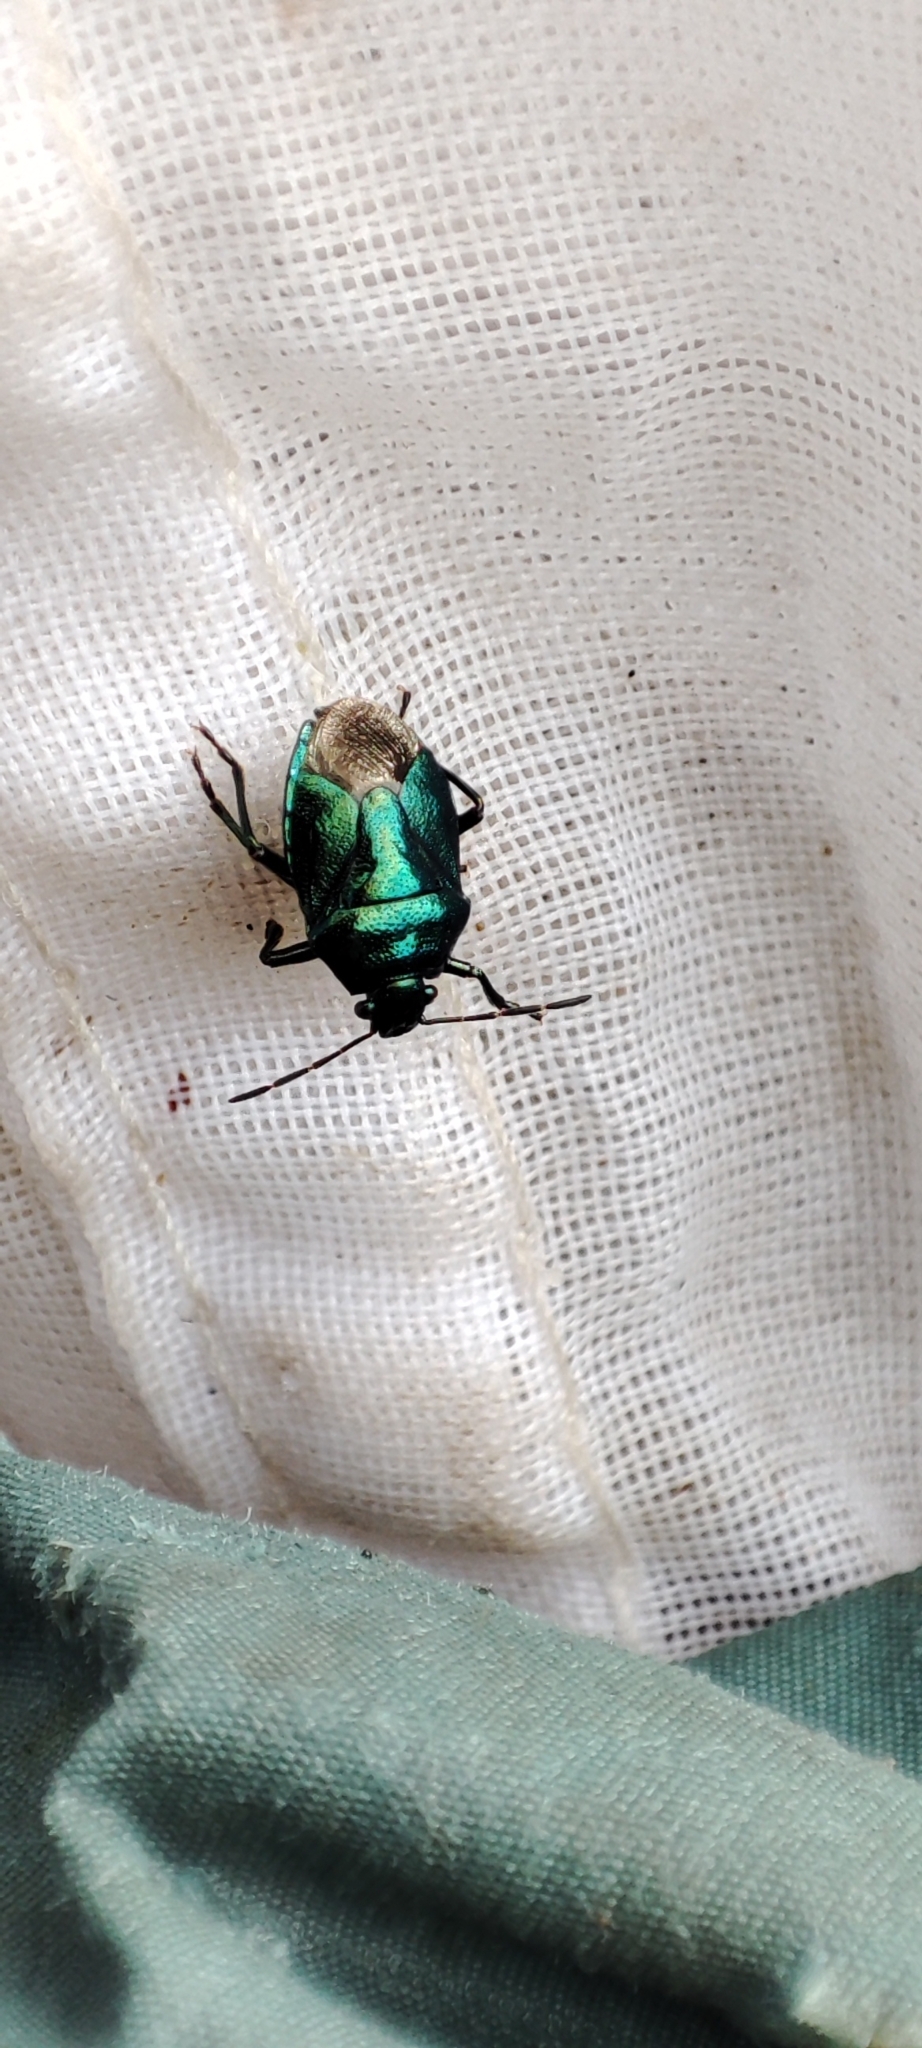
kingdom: Animalia
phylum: Arthropoda
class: Insecta
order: Hemiptera
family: Pentatomidae
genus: Zicrona
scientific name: Zicrona caerulea
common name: Blue shieldbug
